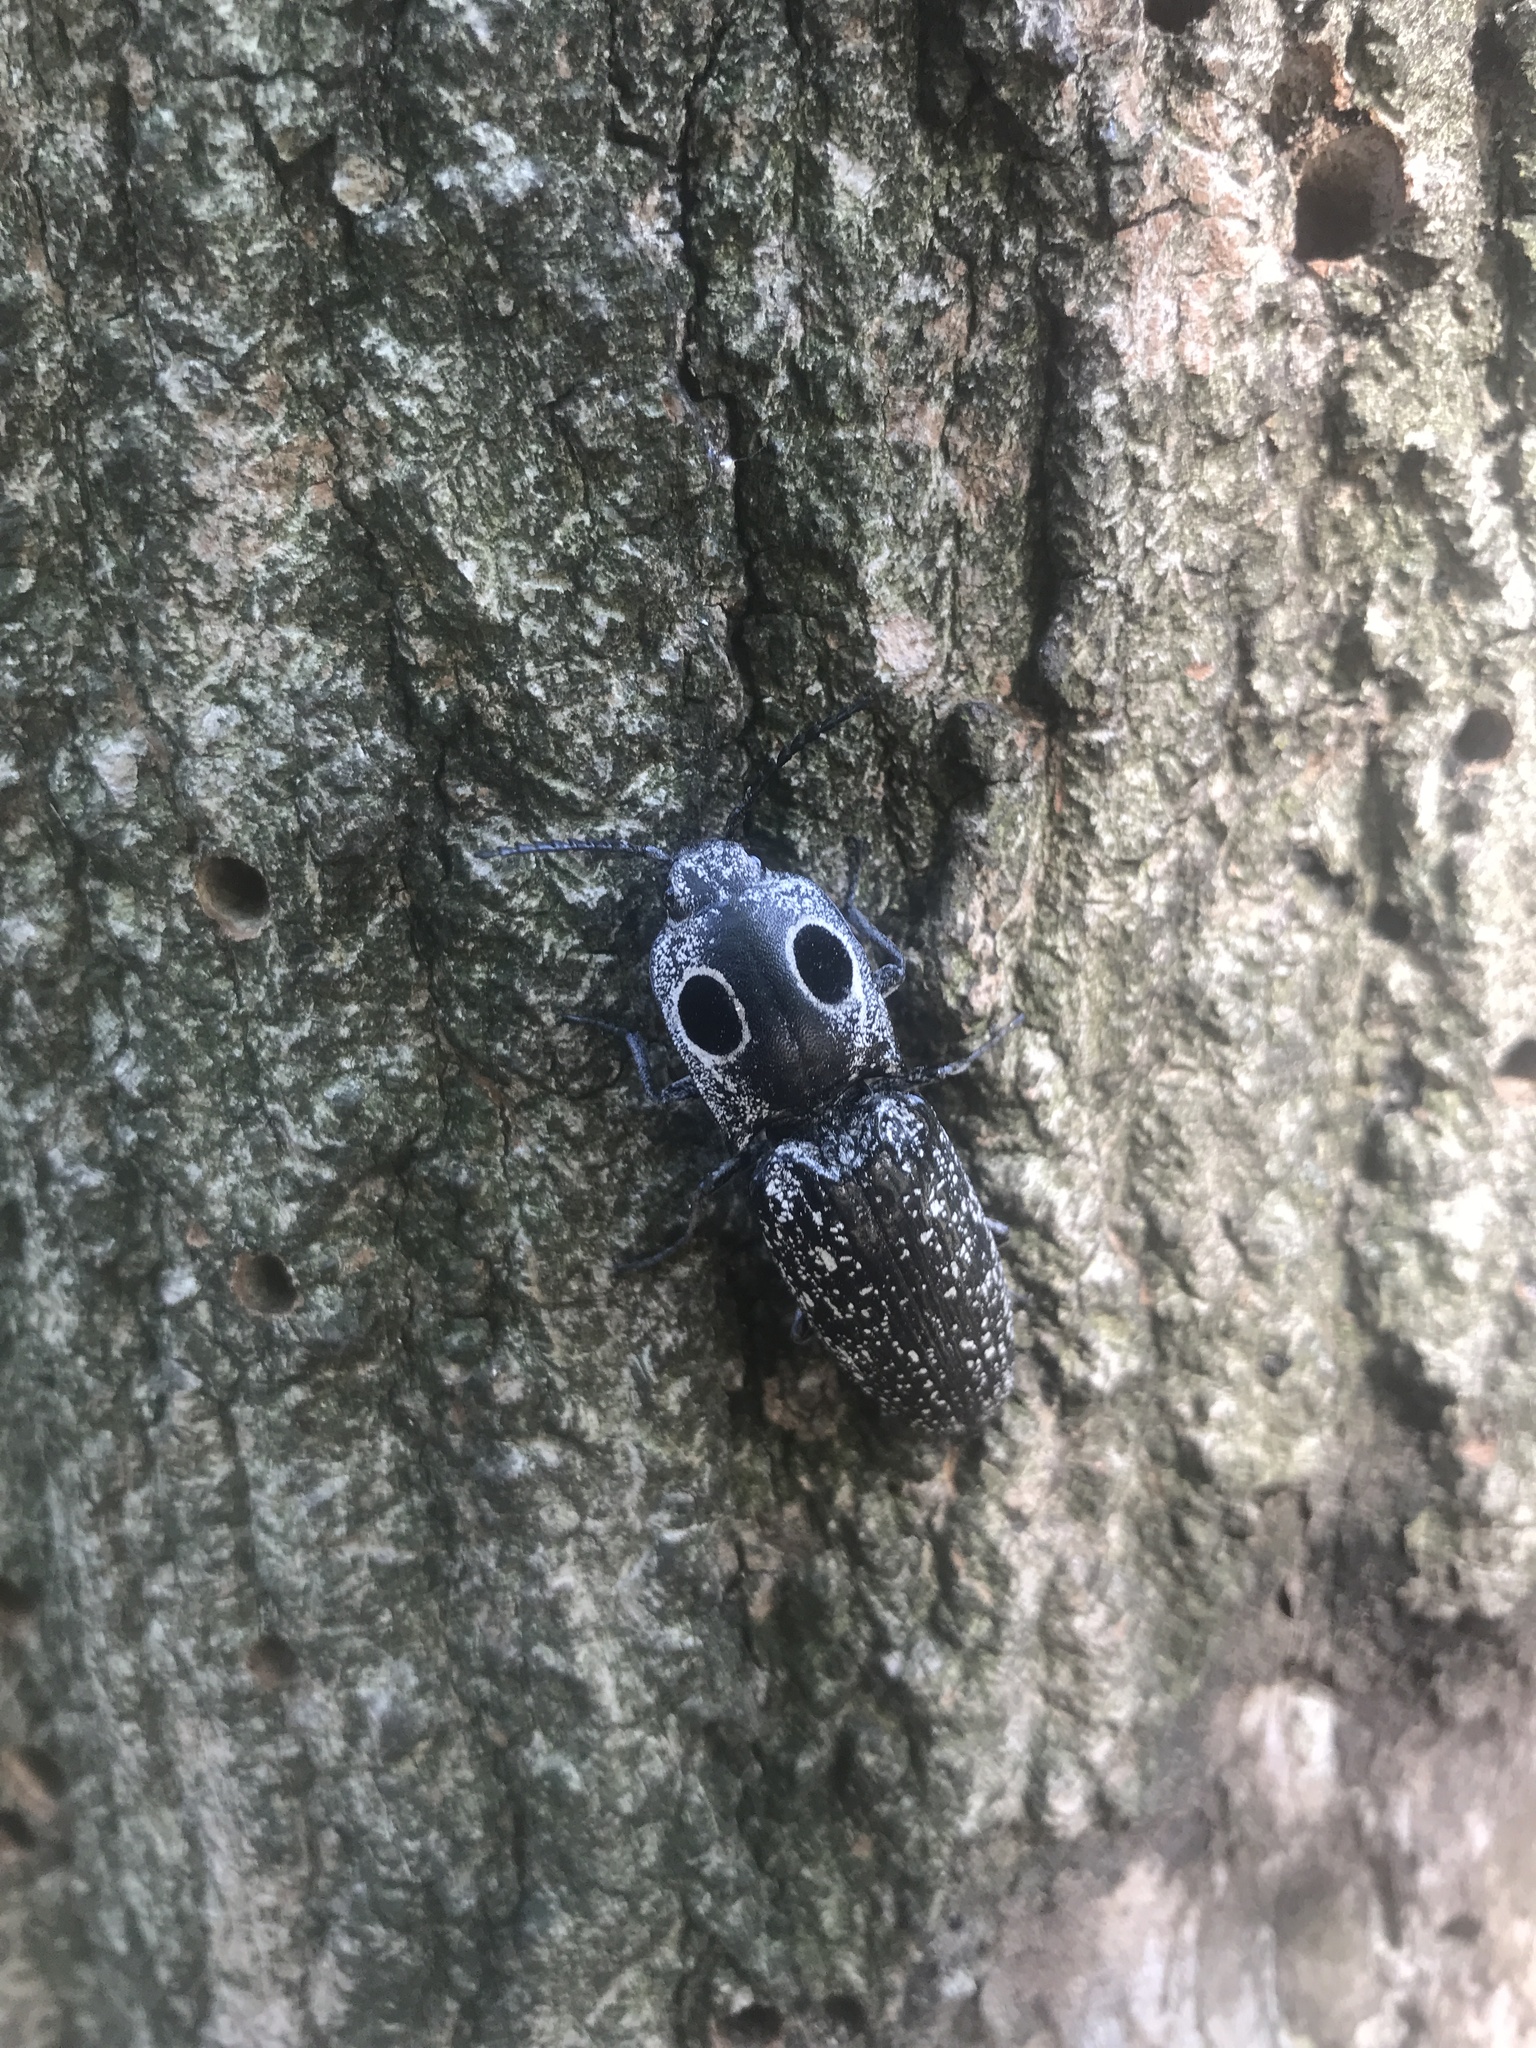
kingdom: Animalia
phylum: Arthropoda
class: Insecta
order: Coleoptera
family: Elateridae
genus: Alaus
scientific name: Alaus oculatus
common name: Eastern eyed click beetle
